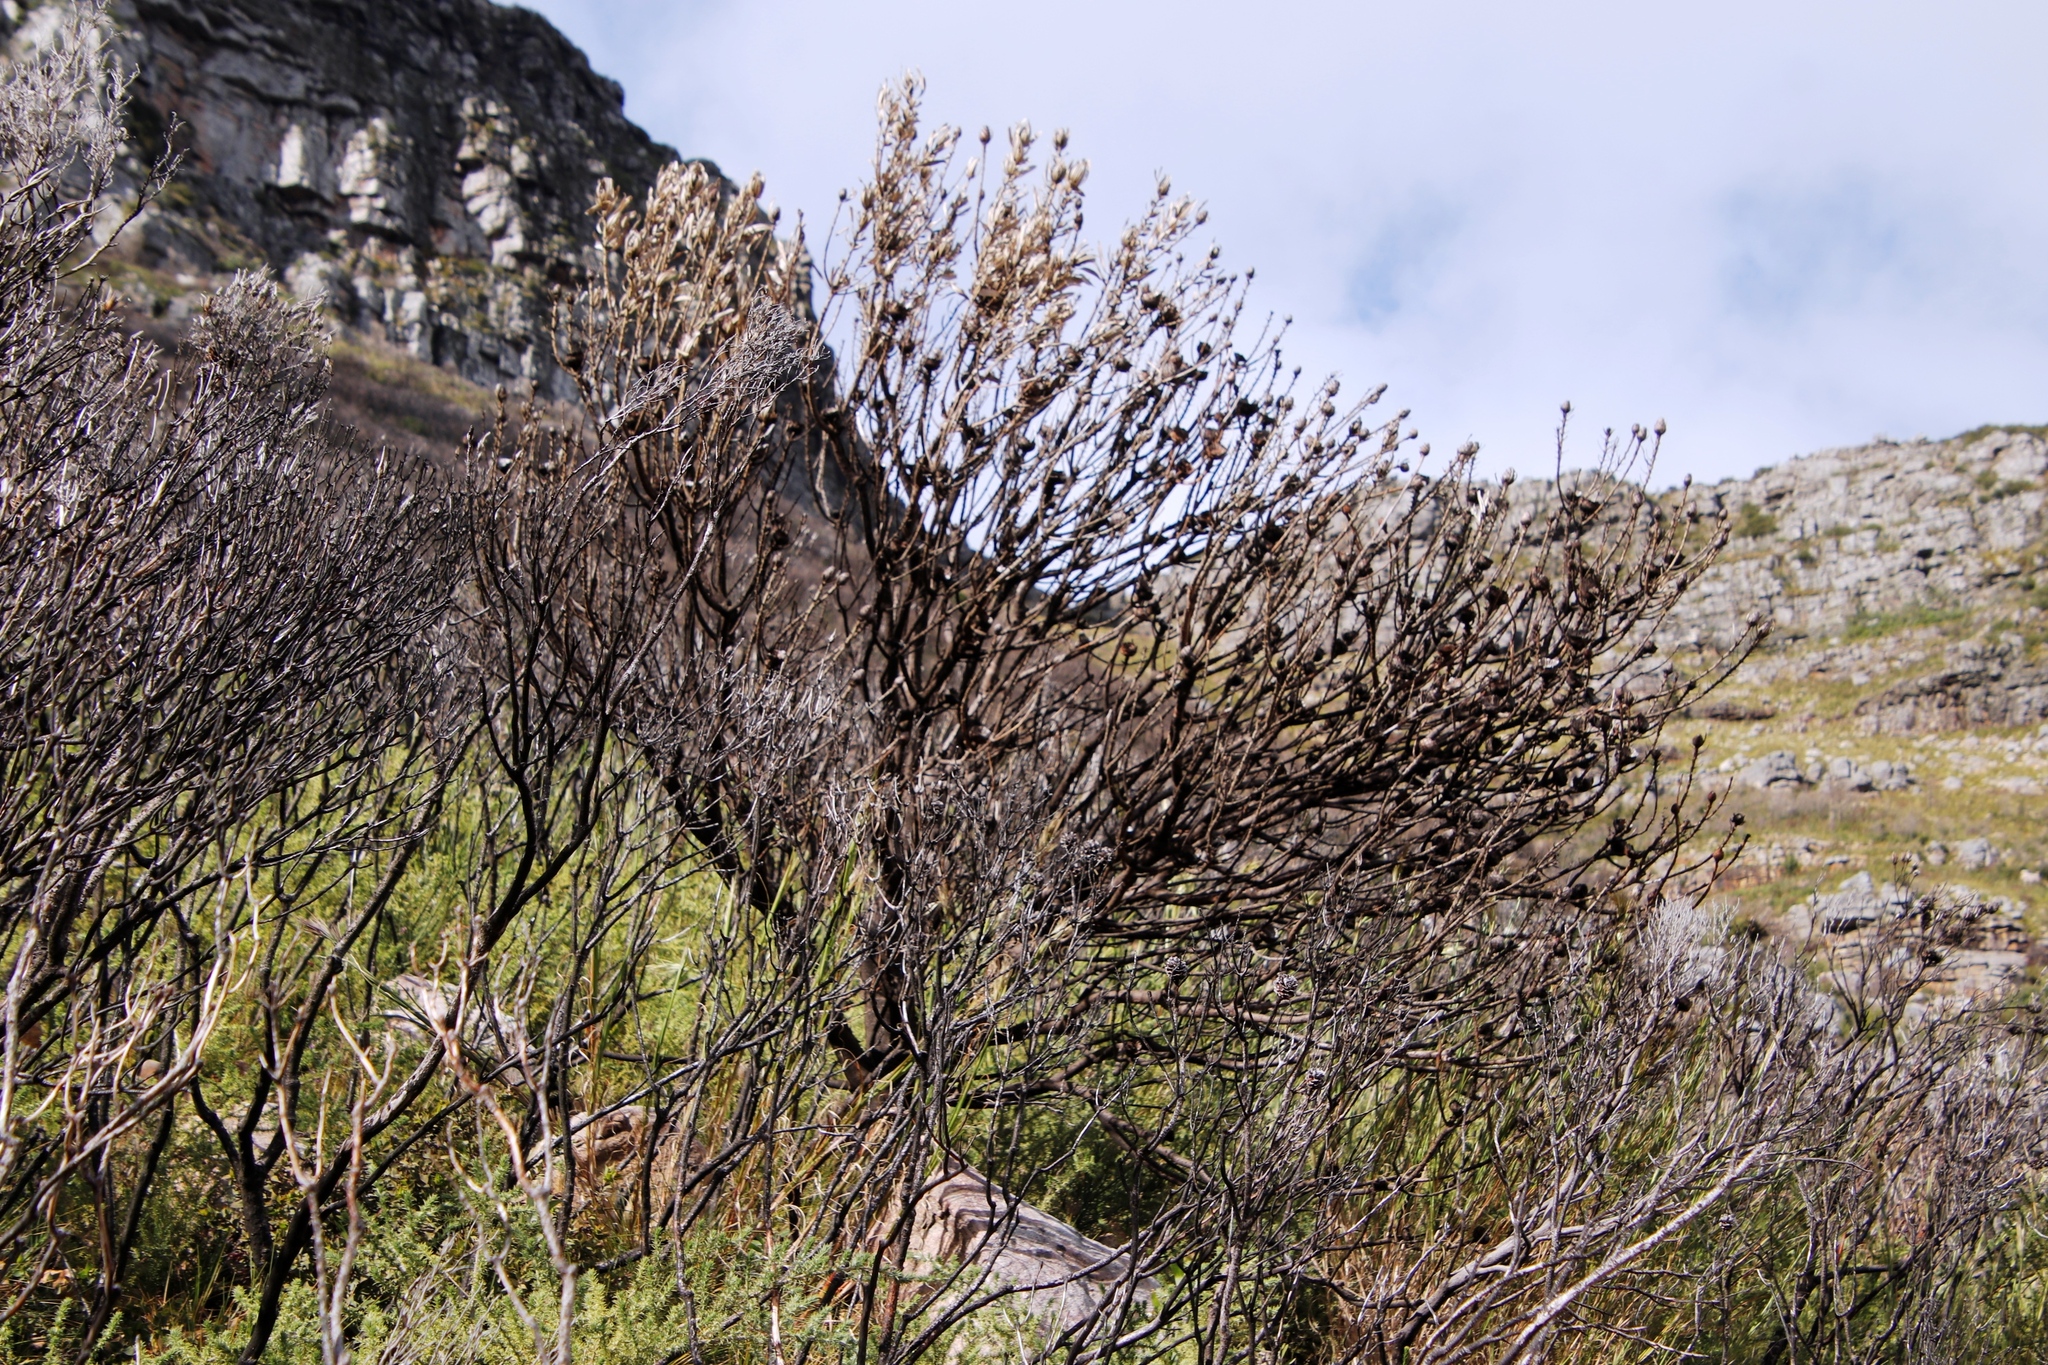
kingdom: Plantae
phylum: Tracheophyta
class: Magnoliopsida
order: Proteales
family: Proteaceae
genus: Protea
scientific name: Protea repens
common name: Sugarbush
